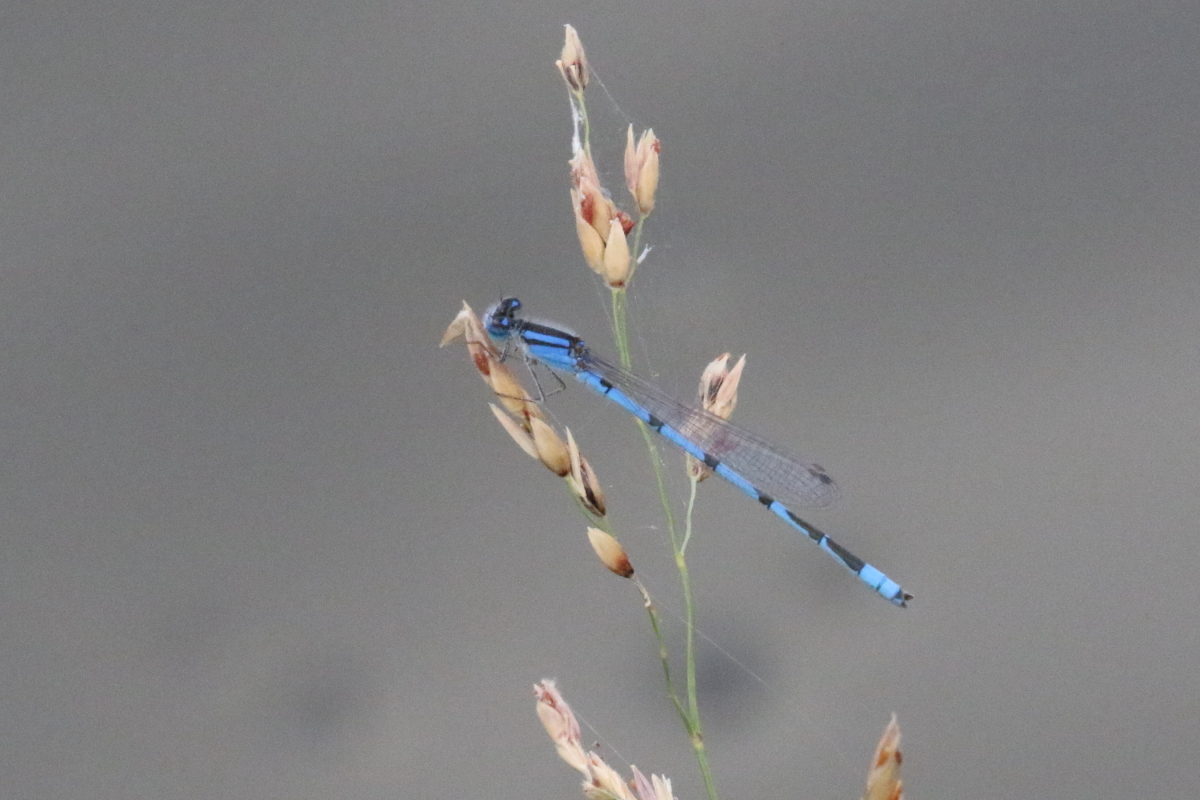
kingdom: Animalia
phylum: Arthropoda
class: Insecta
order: Odonata
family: Coenagrionidae
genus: Enallagma
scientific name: Enallagma civile
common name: Damselfly
